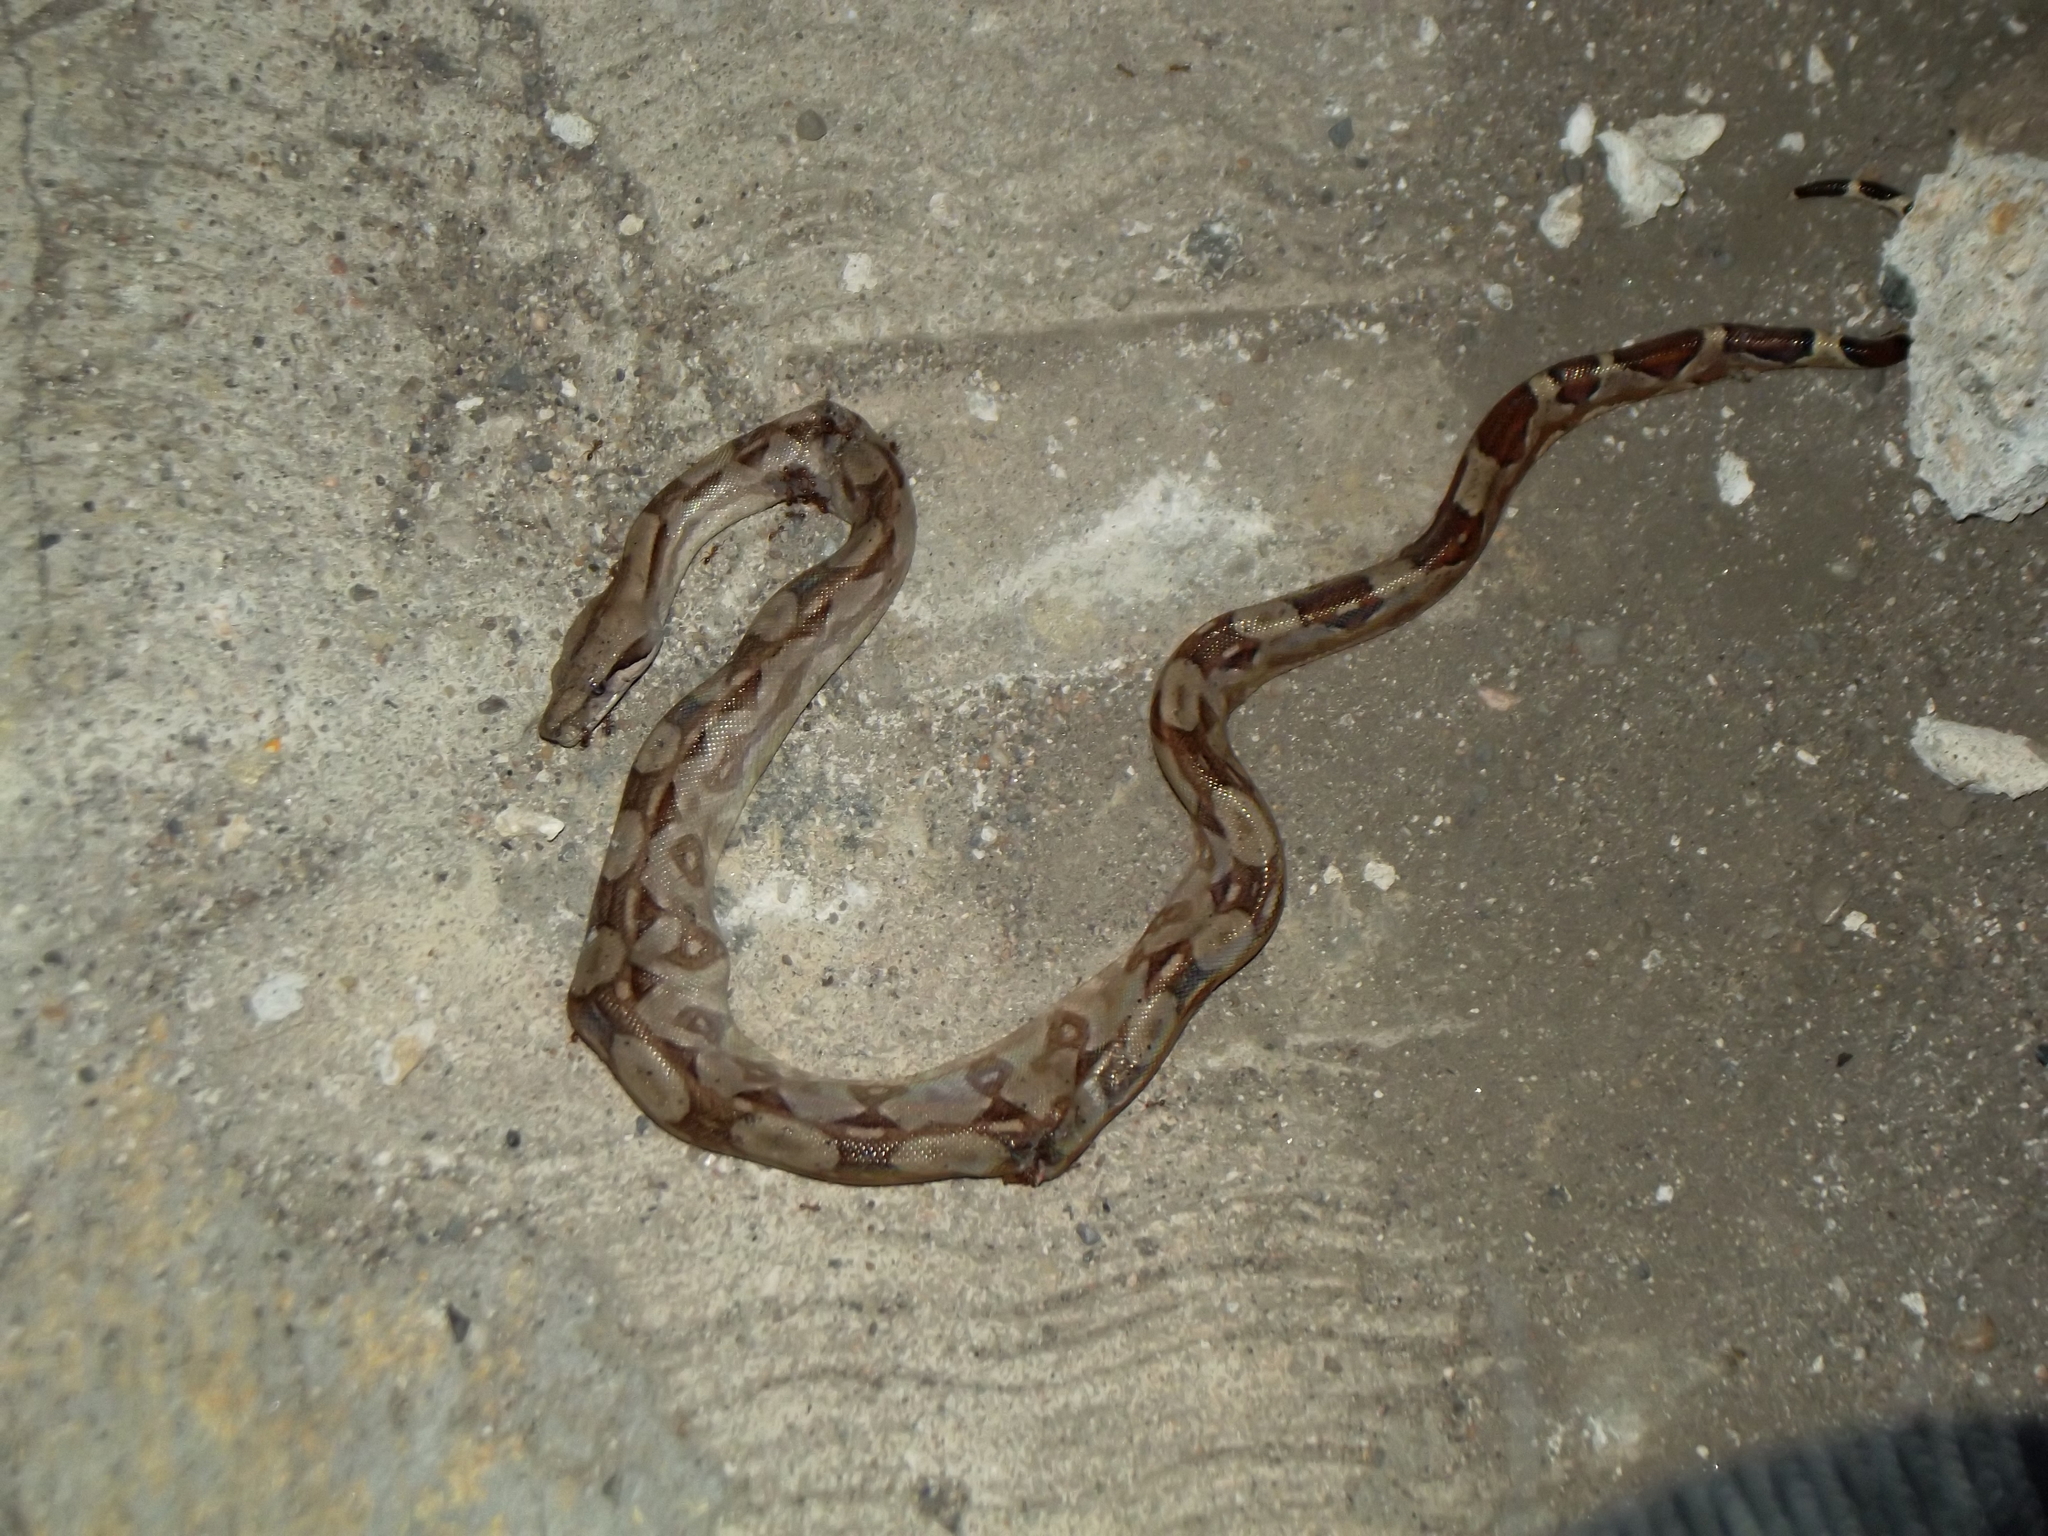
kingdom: Animalia
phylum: Chordata
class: Squamata
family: Boidae
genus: Boa
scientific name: Boa imperator
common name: Central american boa
